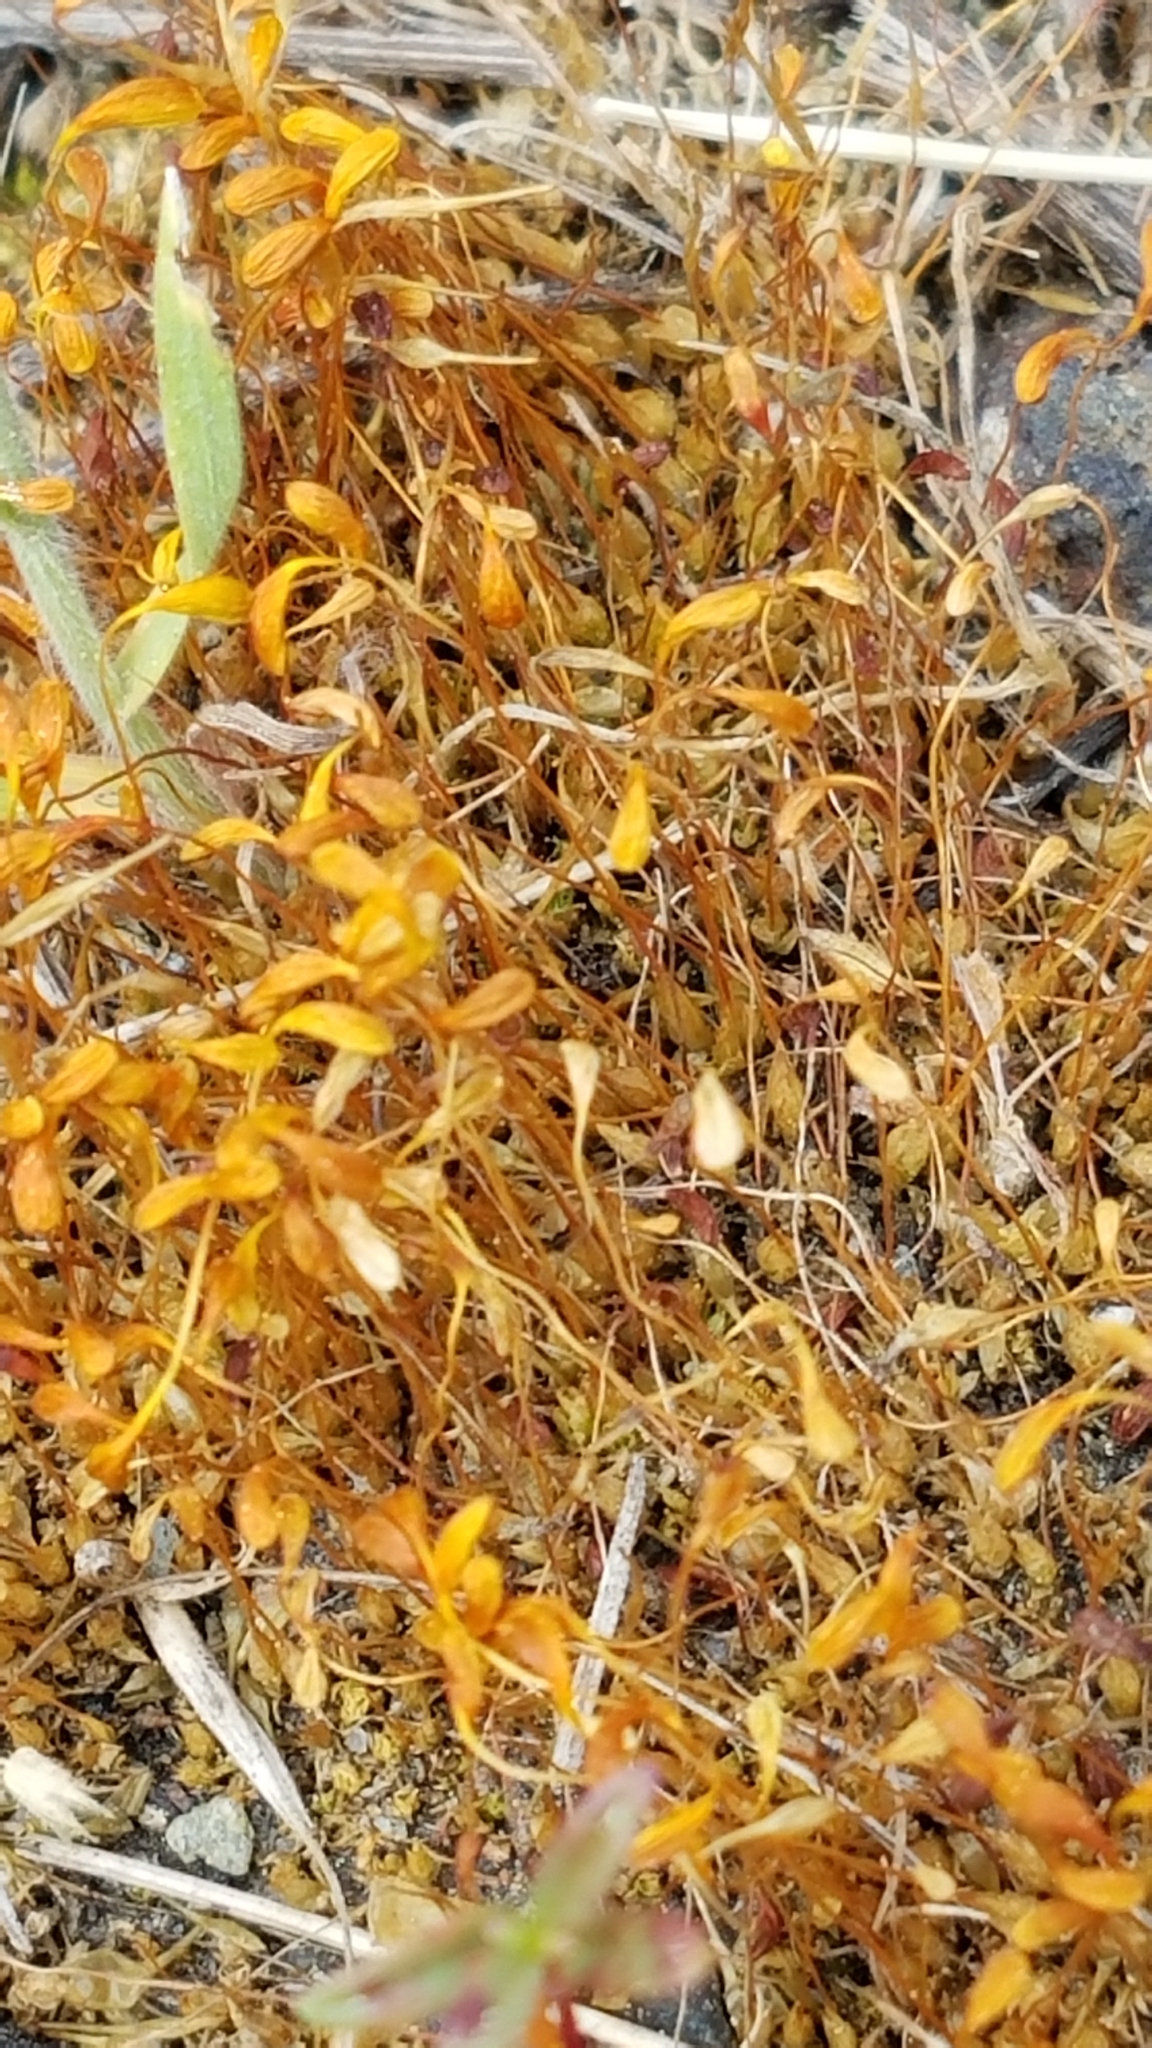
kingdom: Plantae
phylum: Bryophyta
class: Bryopsida
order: Funariales
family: Funariaceae
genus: Funaria
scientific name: Funaria hygrometrica
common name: Common cord moss
